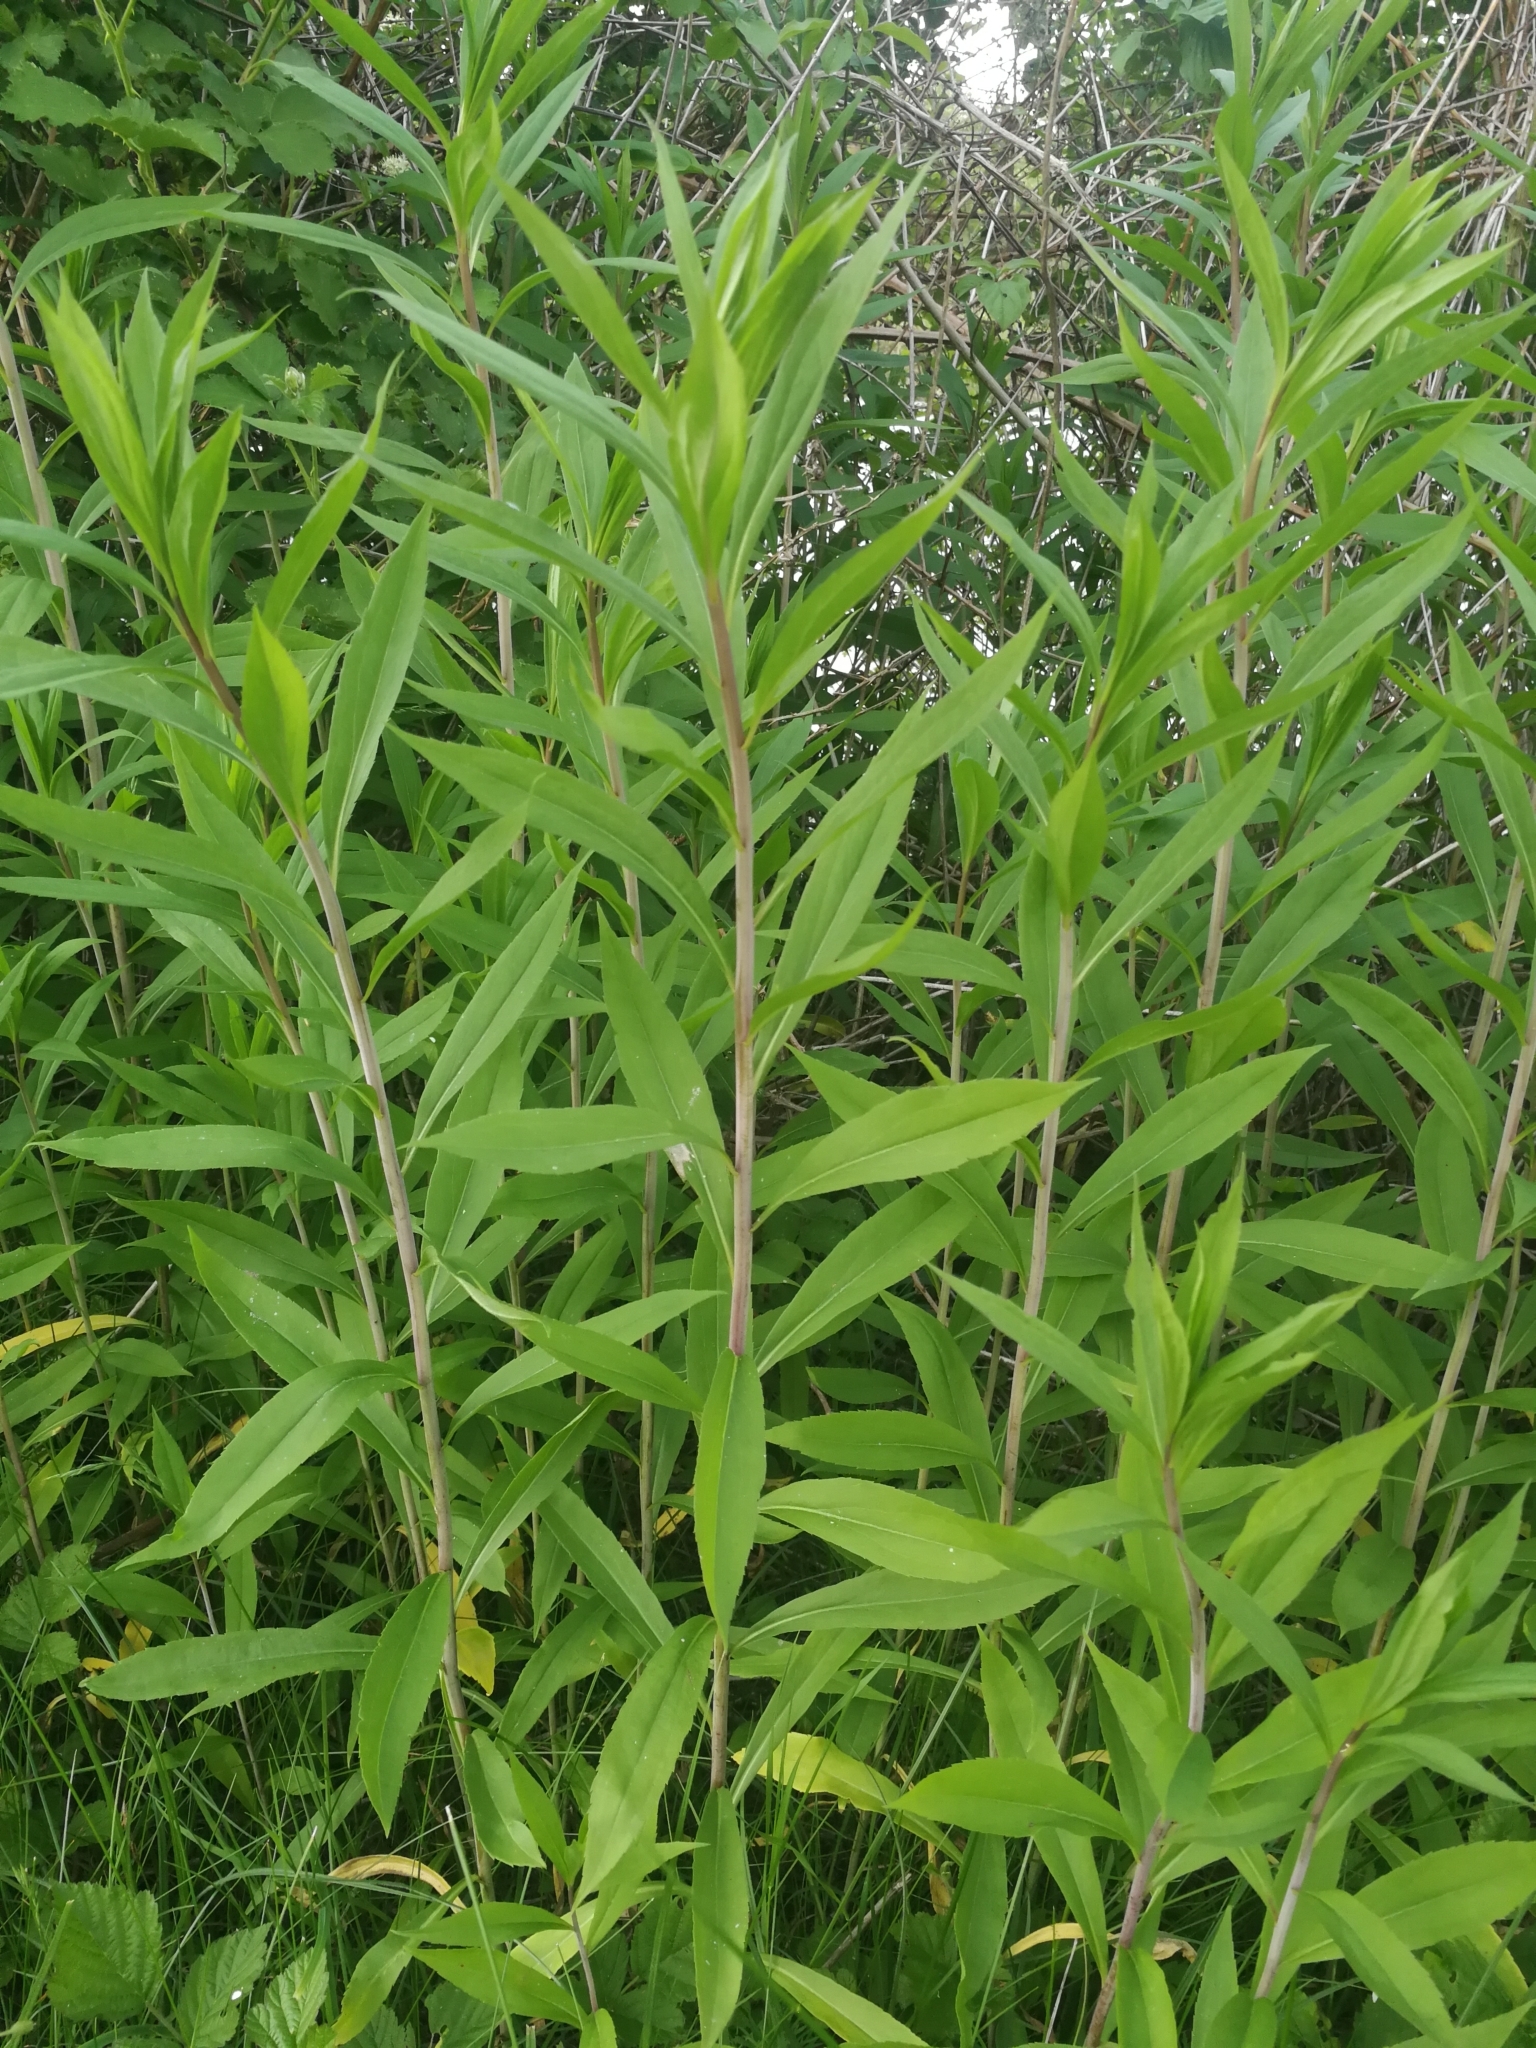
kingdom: Plantae
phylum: Tracheophyta
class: Magnoliopsida
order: Asterales
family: Asteraceae
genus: Solidago
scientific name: Solidago gigantea
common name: Giant goldenrod
